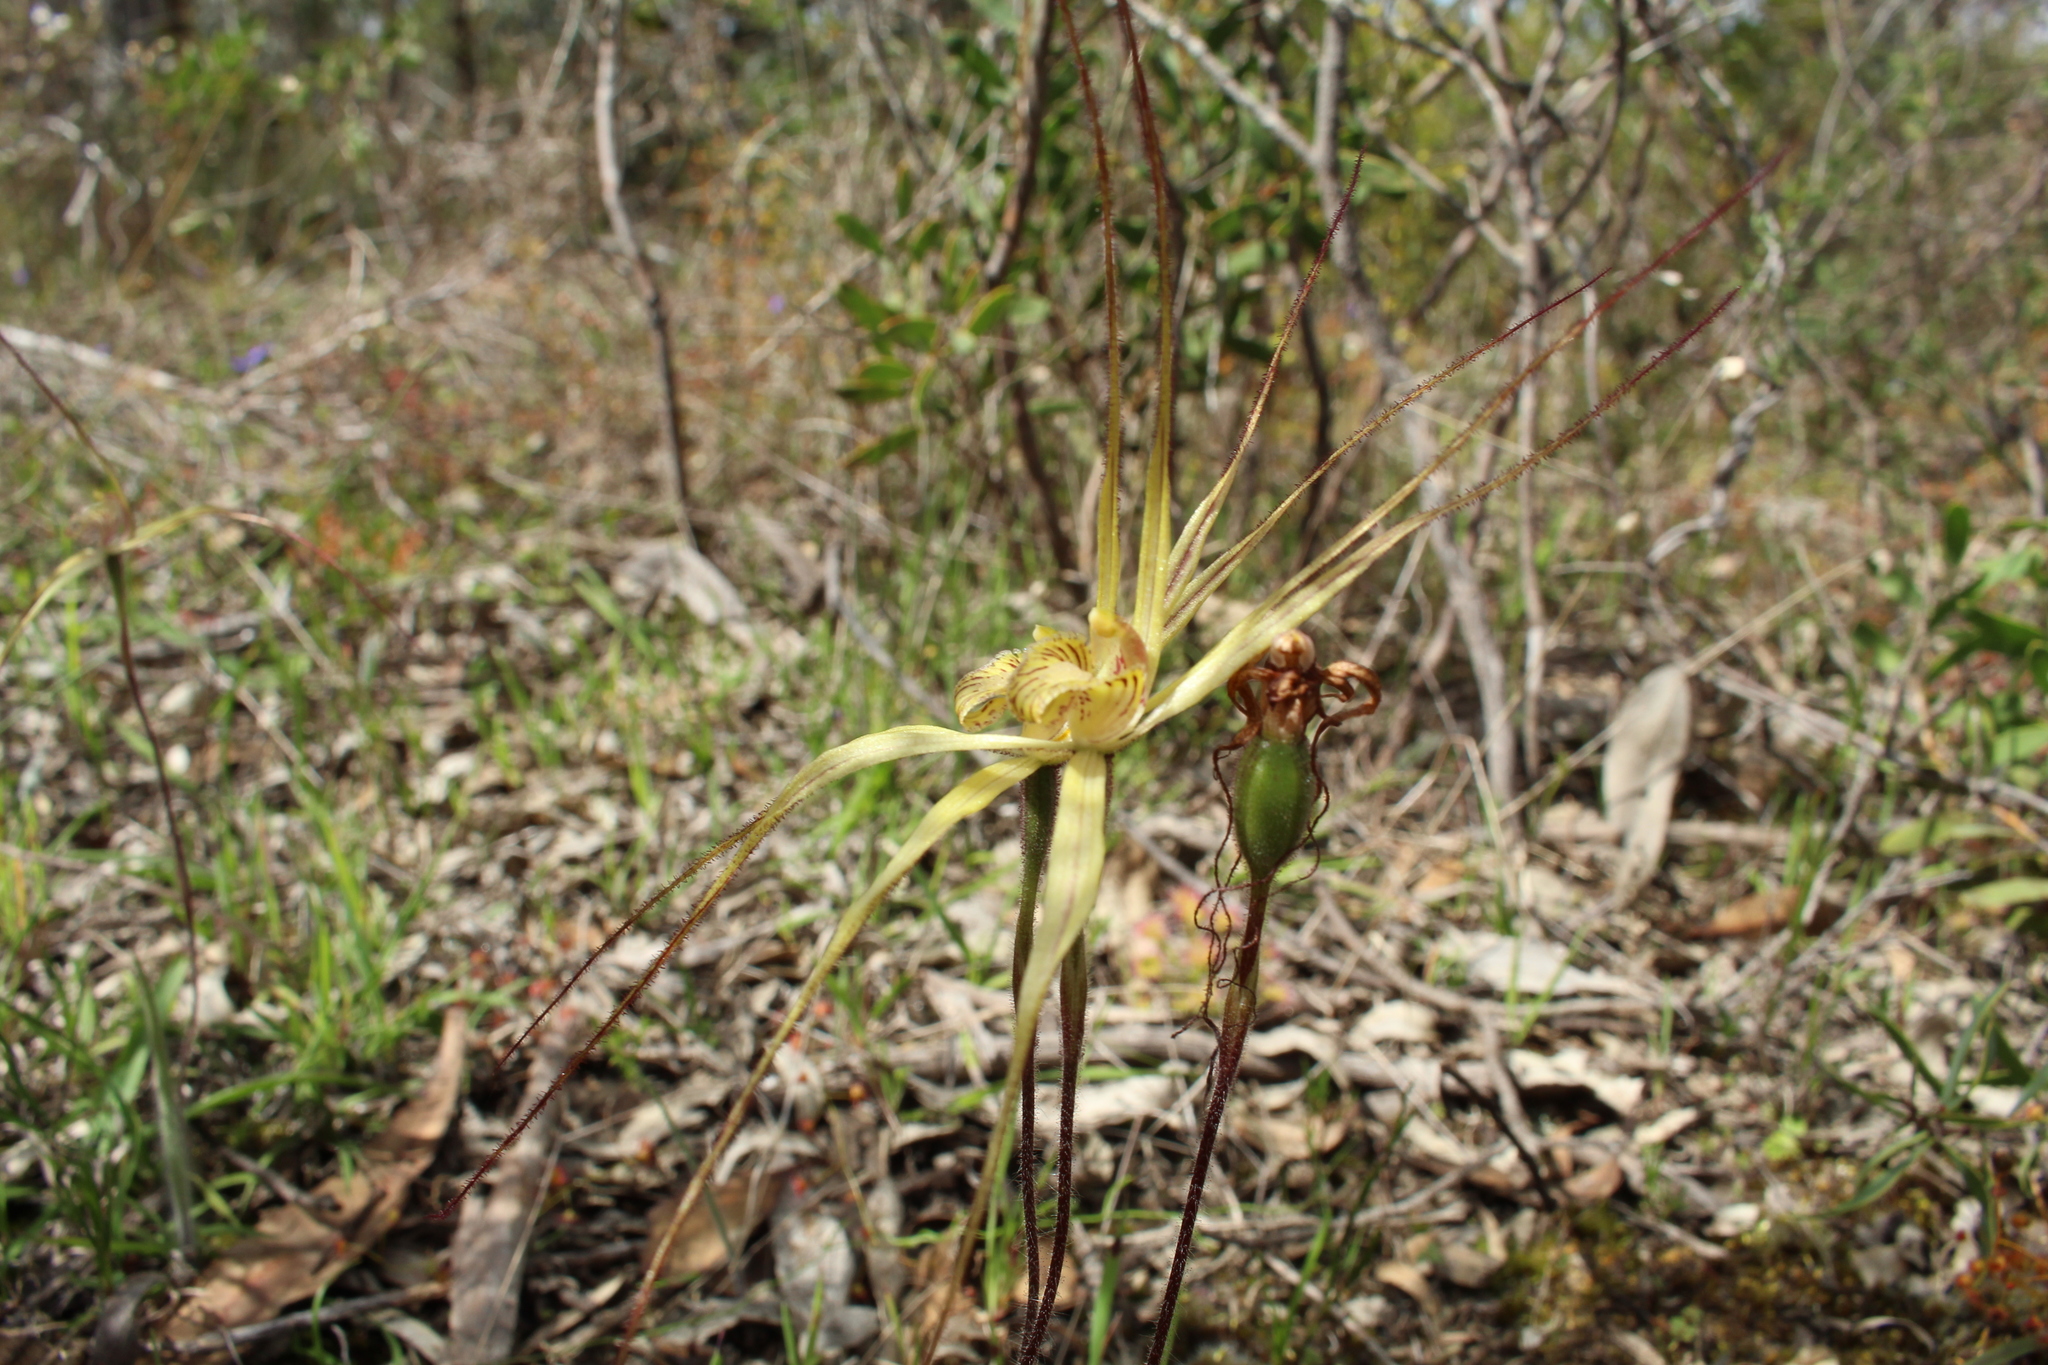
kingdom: Plantae
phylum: Tracheophyta
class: Liliopsida
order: Asparagales
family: Orchidaceae
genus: Caladenia
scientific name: Caladenia straminichila
